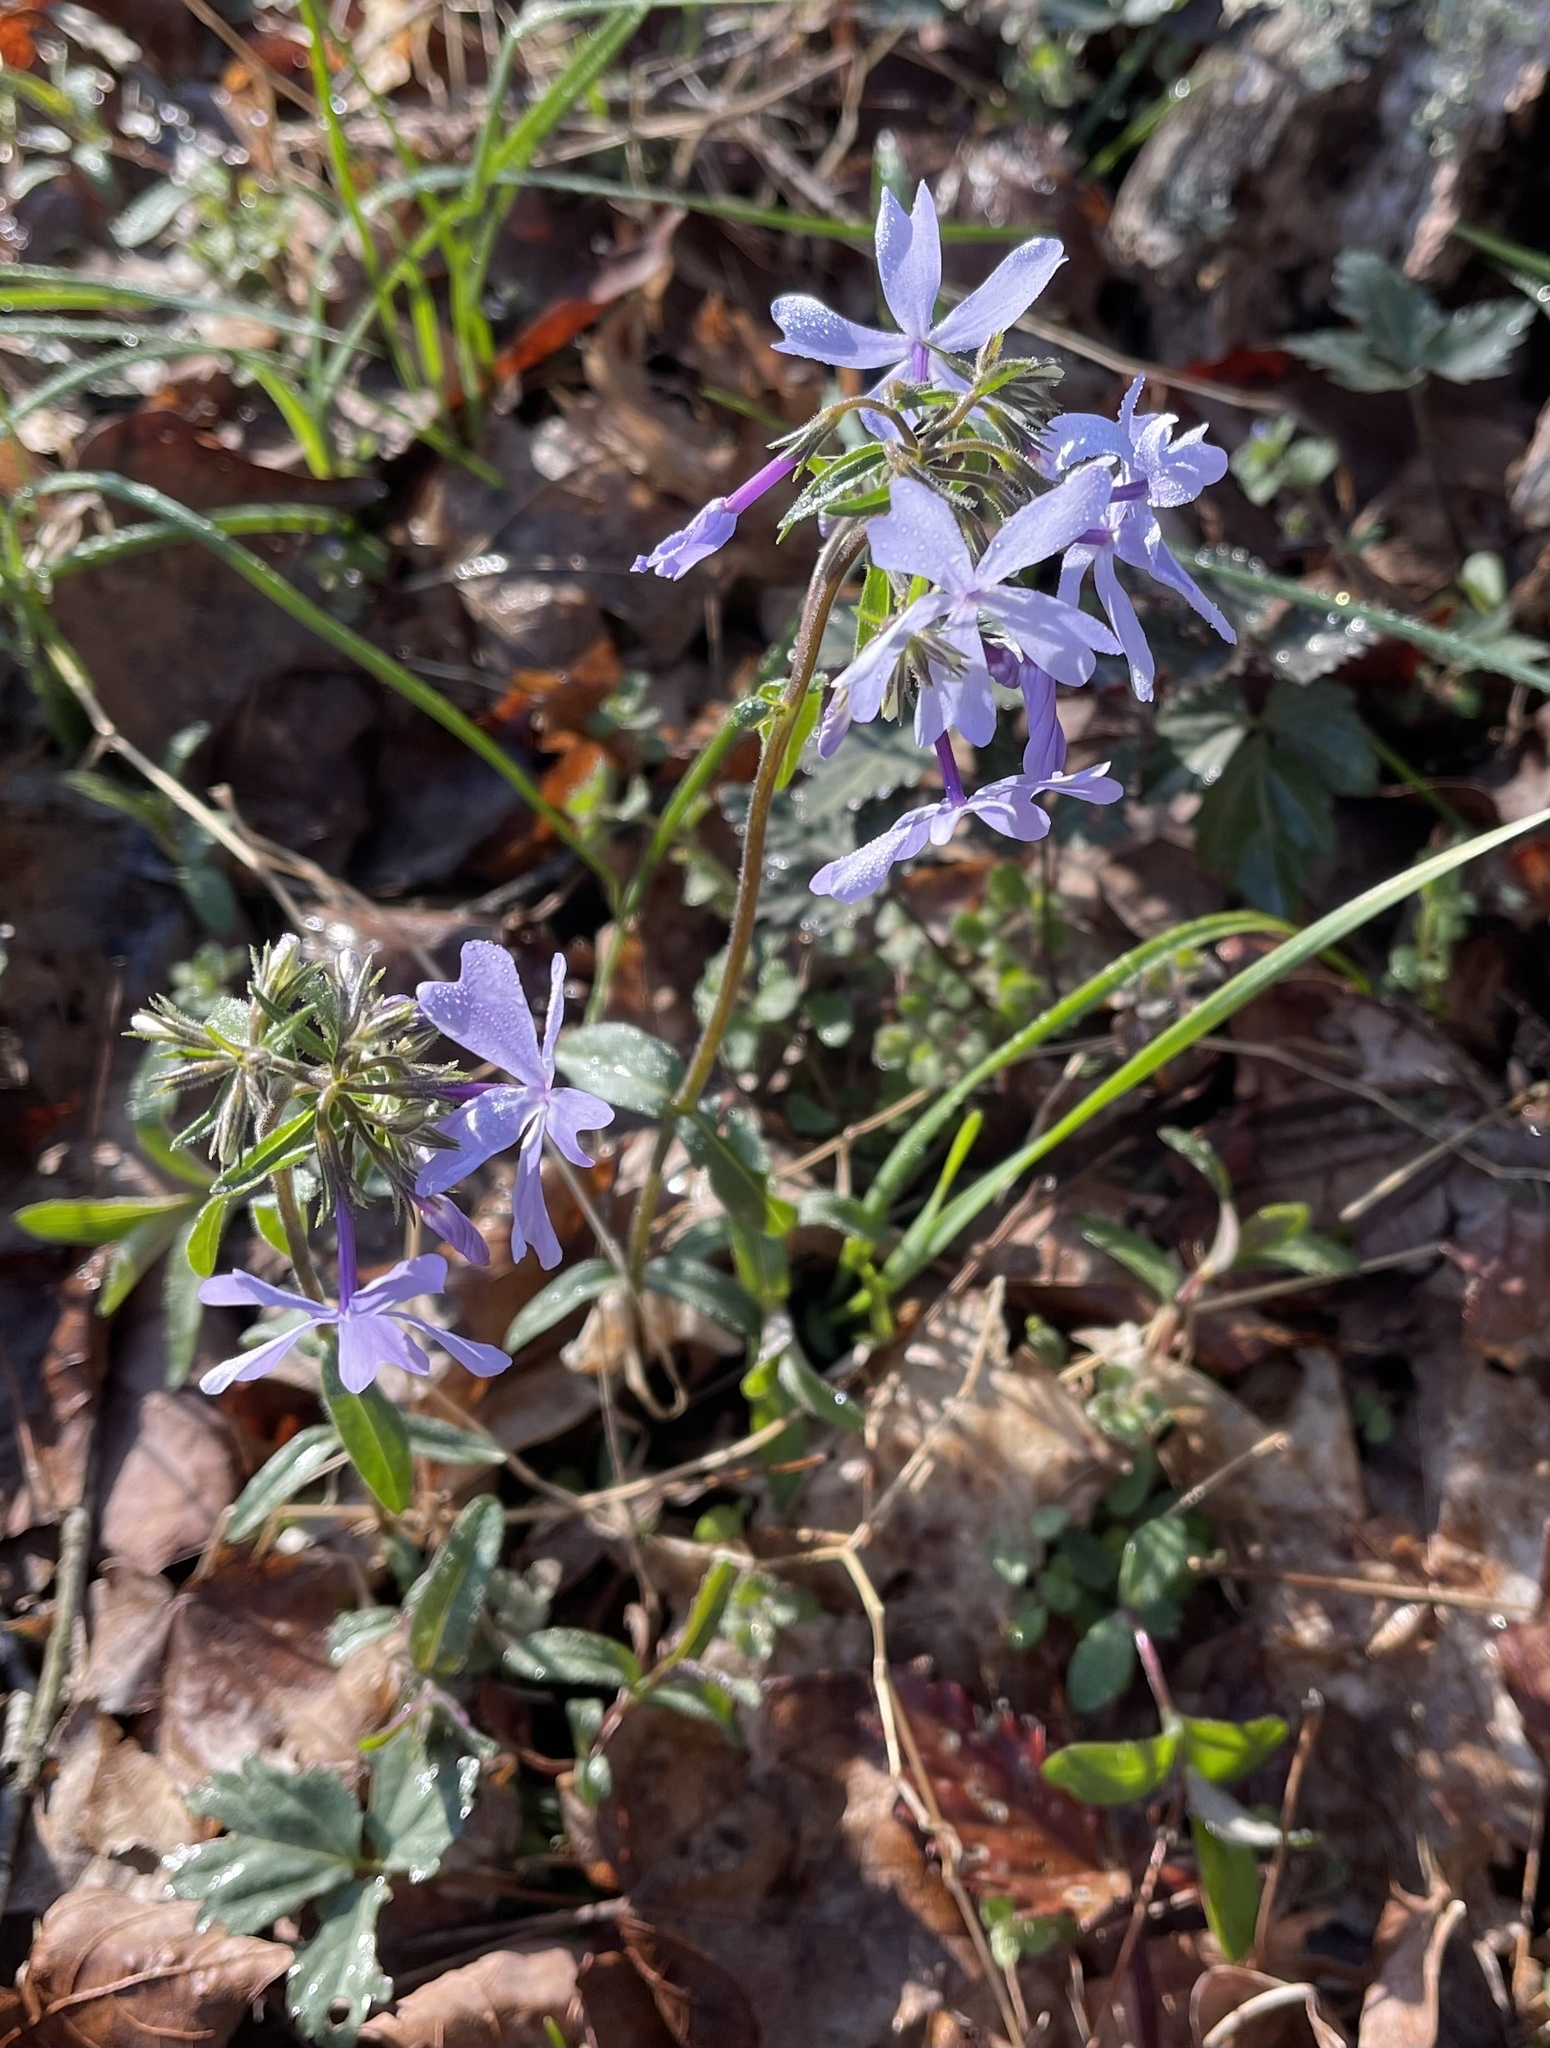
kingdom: Plantae
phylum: Tracheophyta
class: Magnoliopsida
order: Ericales
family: Polemoniaceae
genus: Phlox
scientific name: Phlox divaricata
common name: Blue phlox
